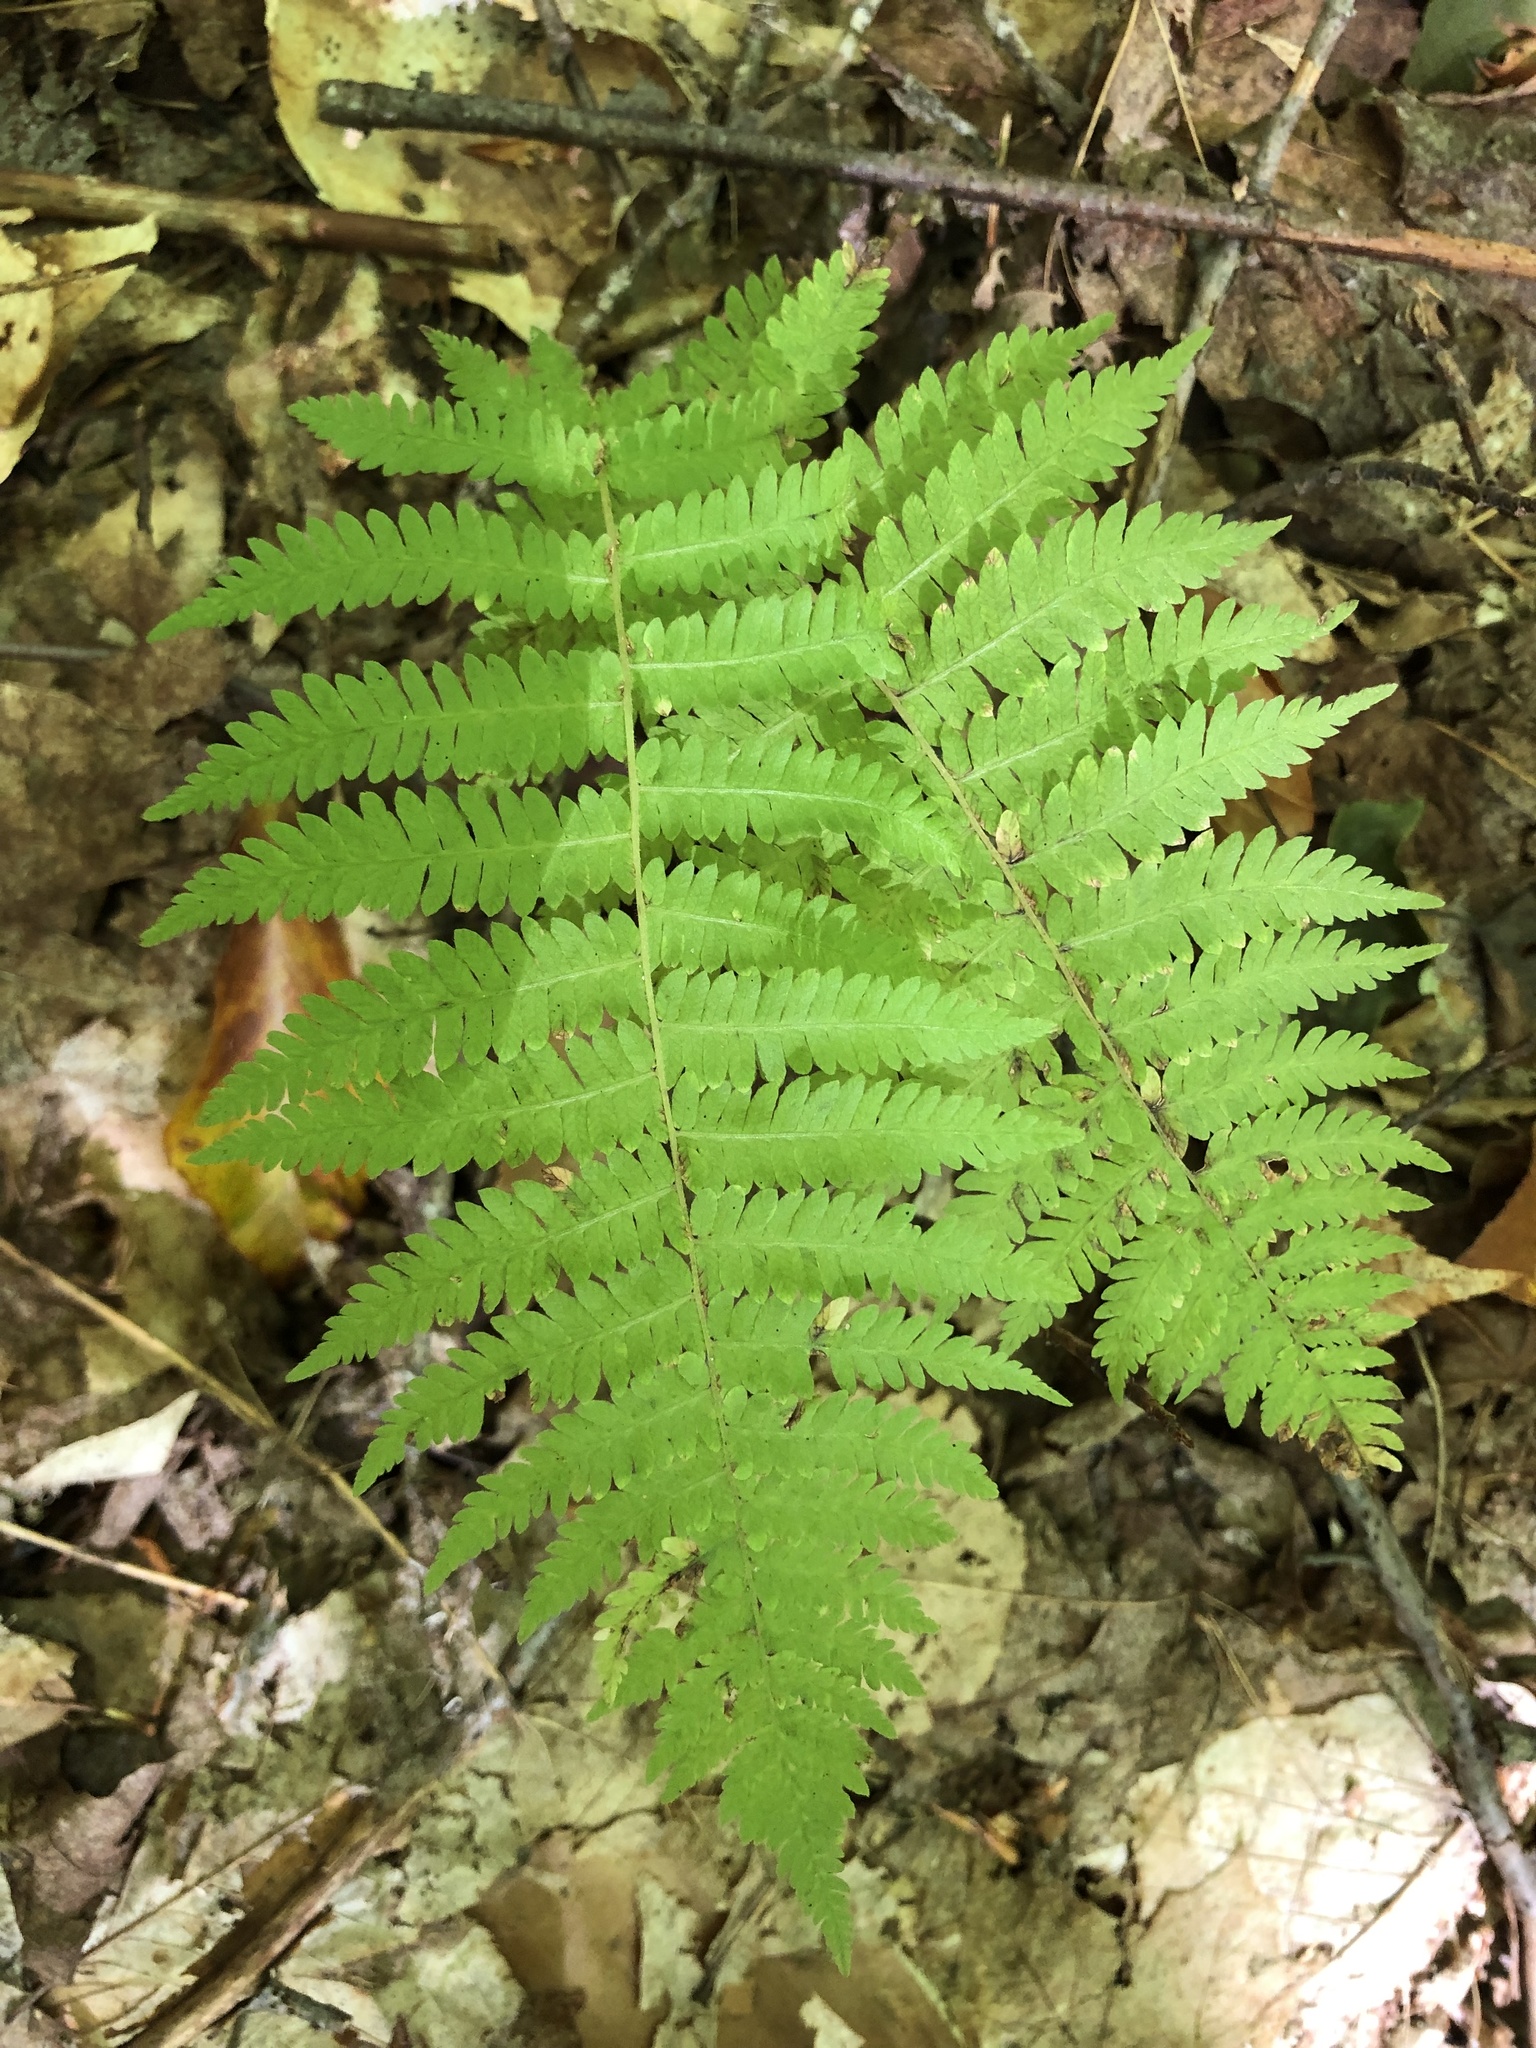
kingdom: Plantae
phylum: Tracheophyta
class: Polypodiopsida
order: Polypodiales
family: Thelypteridaceae
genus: Amauropelta
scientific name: Amauropelta noveboracensis
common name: New york fern
